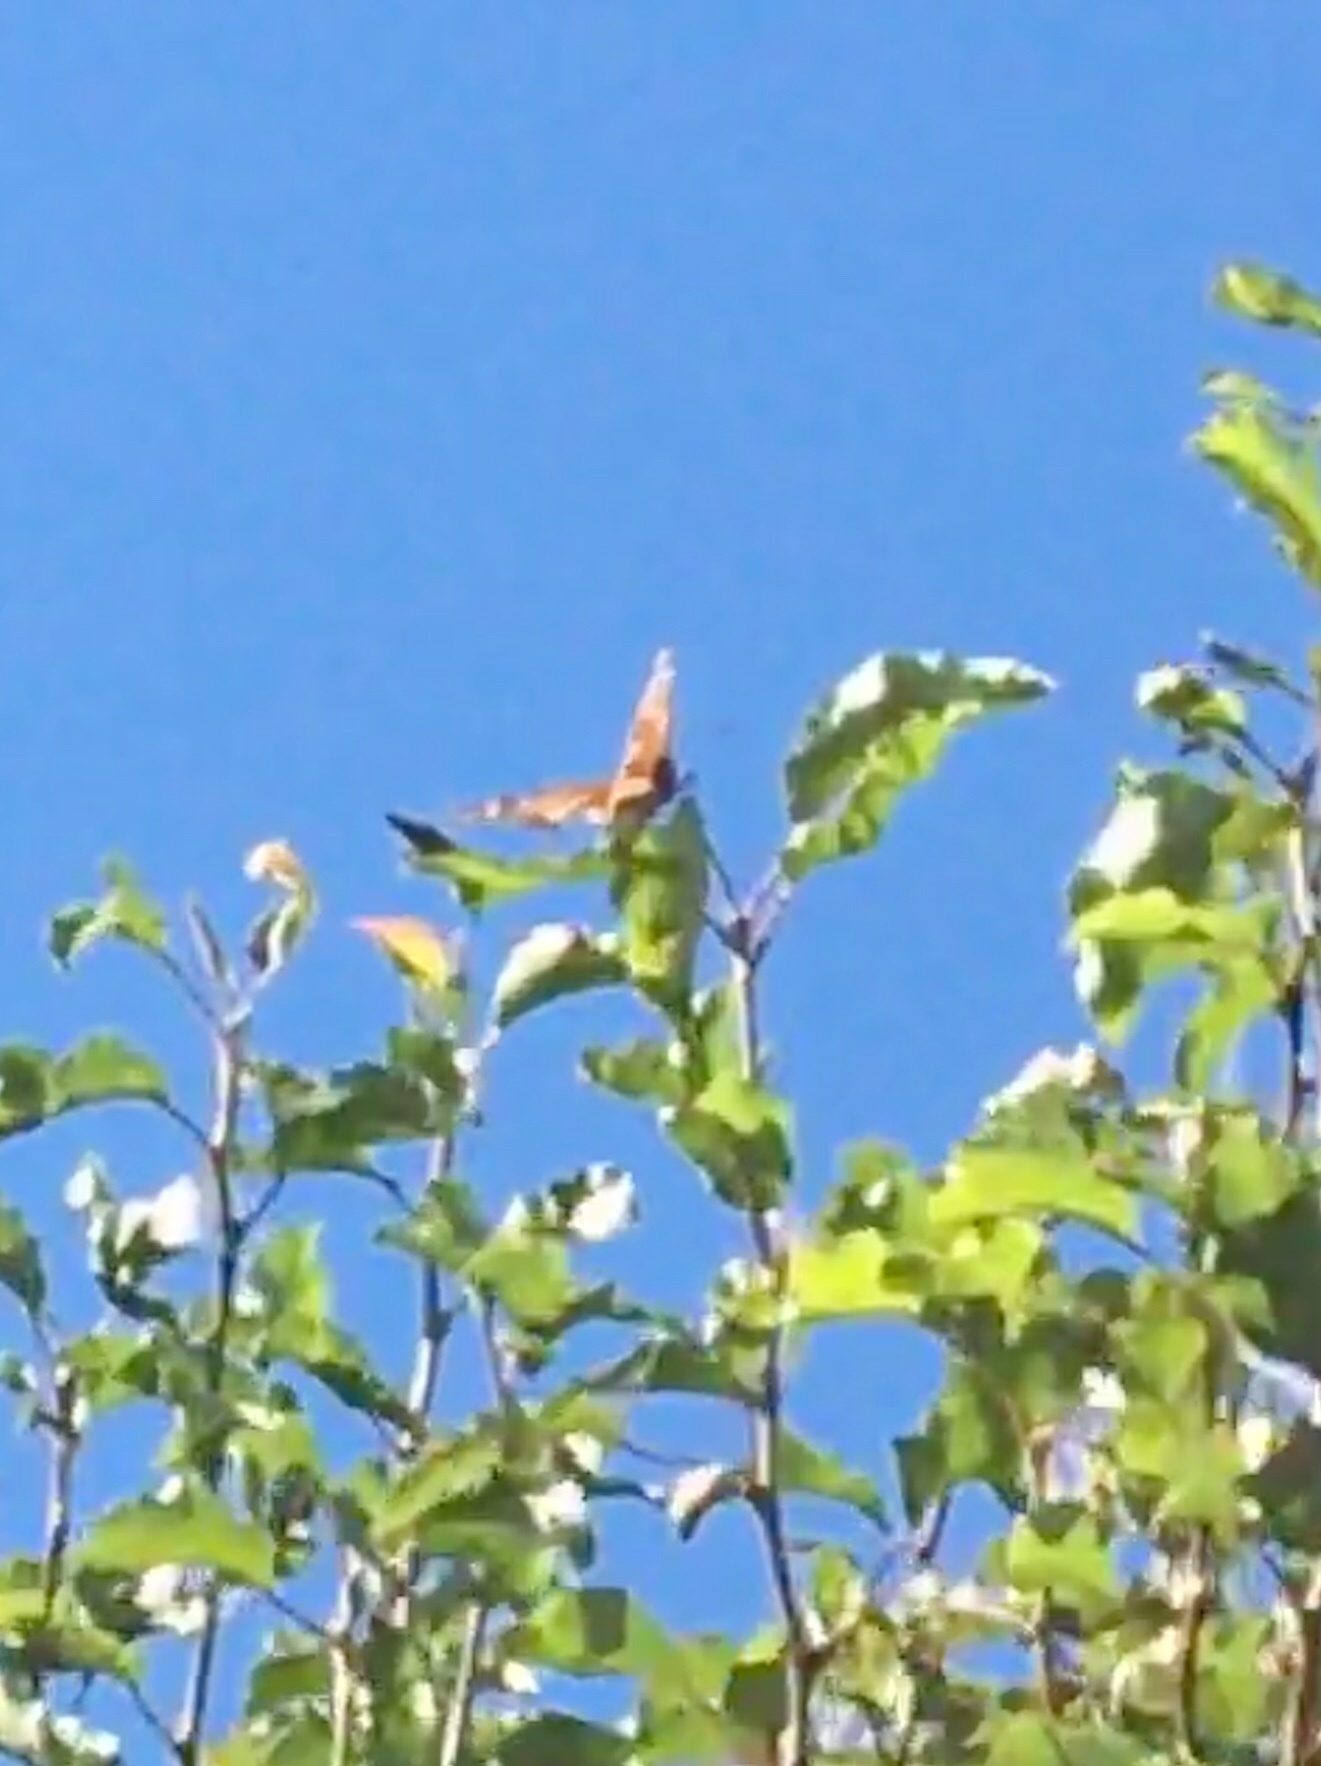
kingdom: Animalia
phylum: Arthropoda
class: Insecta
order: Lepidoptera
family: Nymphalidae
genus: Danaus
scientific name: Danaus plexippus
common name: Monarch
